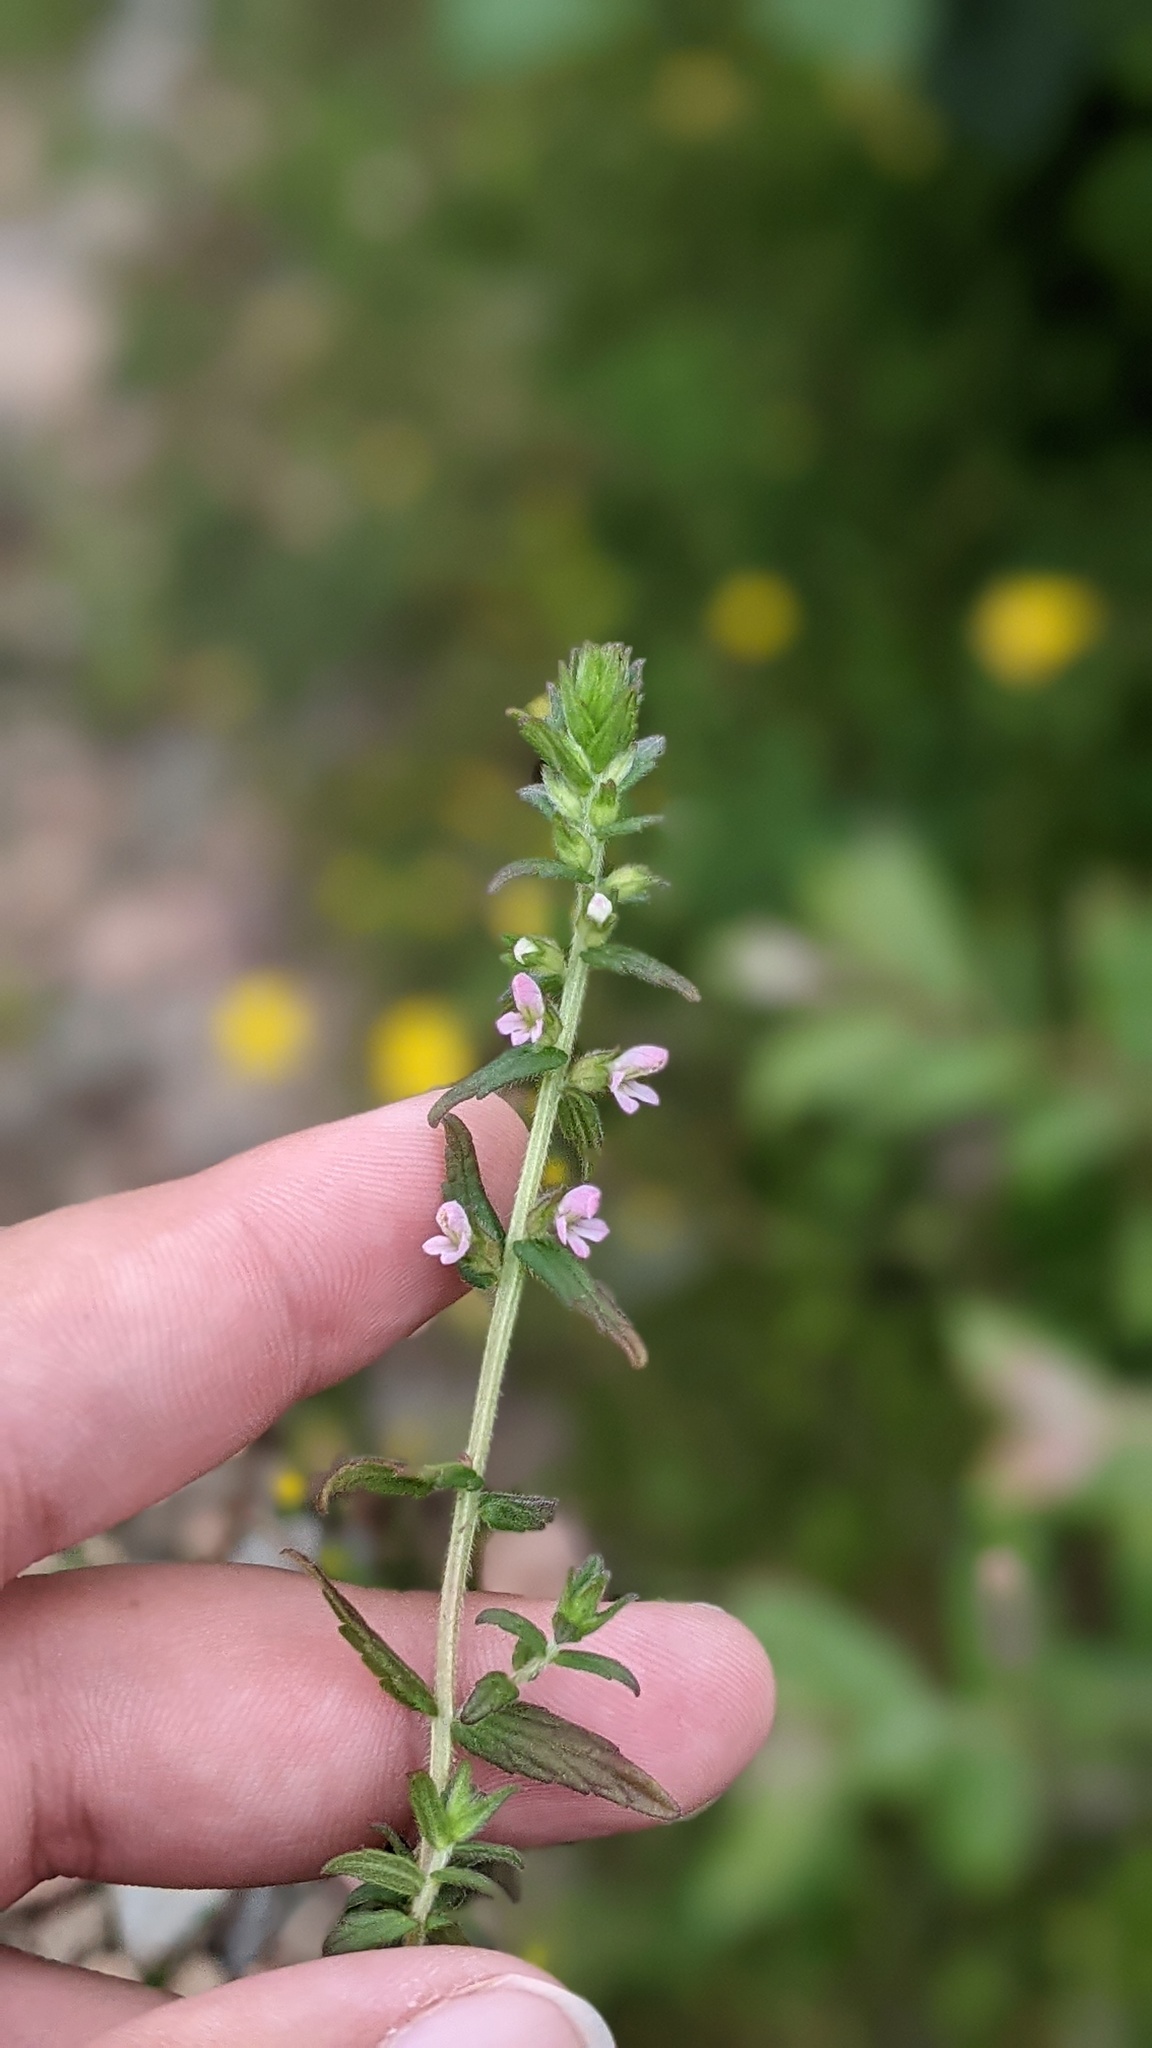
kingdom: Plantae
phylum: Tracheophyta
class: Magnoliopsida
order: Lamiales
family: Orobanchaceae
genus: Odontites
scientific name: Odontites vulgaris
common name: Broomrape
